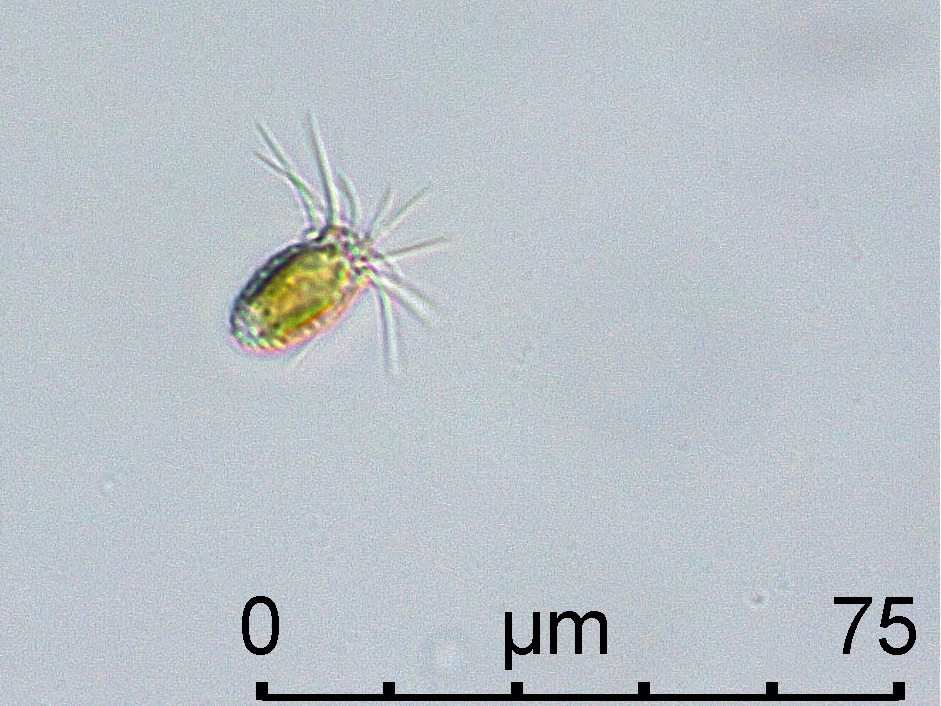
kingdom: Chromista
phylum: Ochrophyta
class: Chrysophyceae
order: Synurales
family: Mallomonadaceae
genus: Mallomonas
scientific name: Mallomonas pumilio
